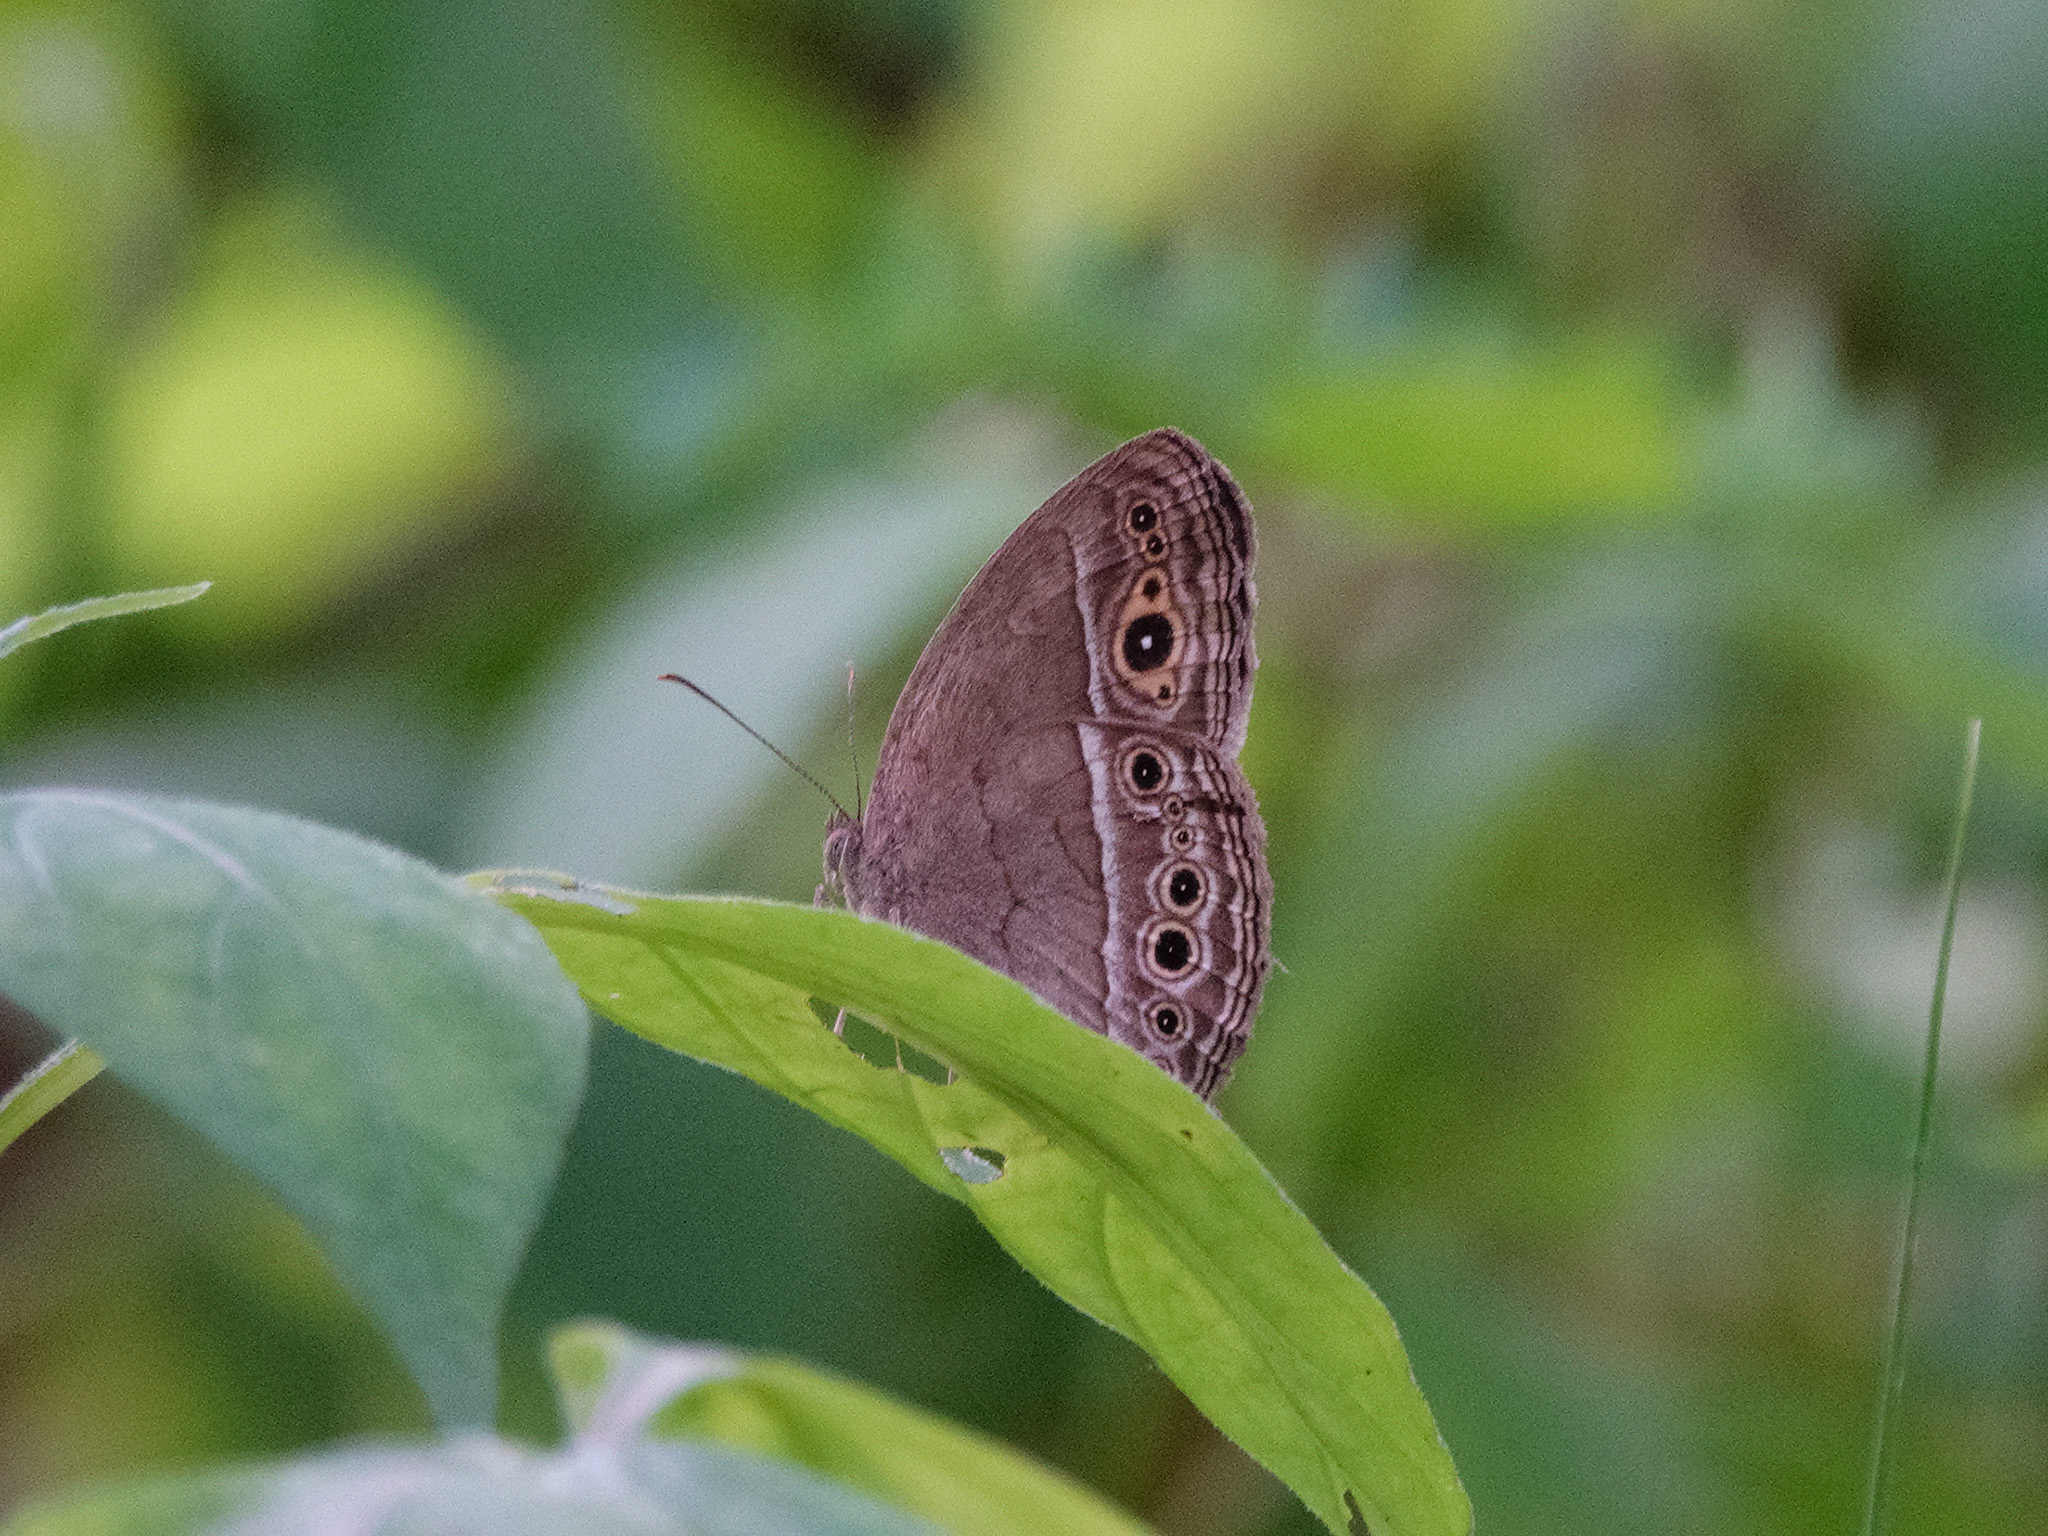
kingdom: Animalia
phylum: Arthropoda
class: Insecta
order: Lepidoptera
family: Nymphalidae
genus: Mycalesis
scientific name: Mycalesis perseoides
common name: Burmese bushbrown
